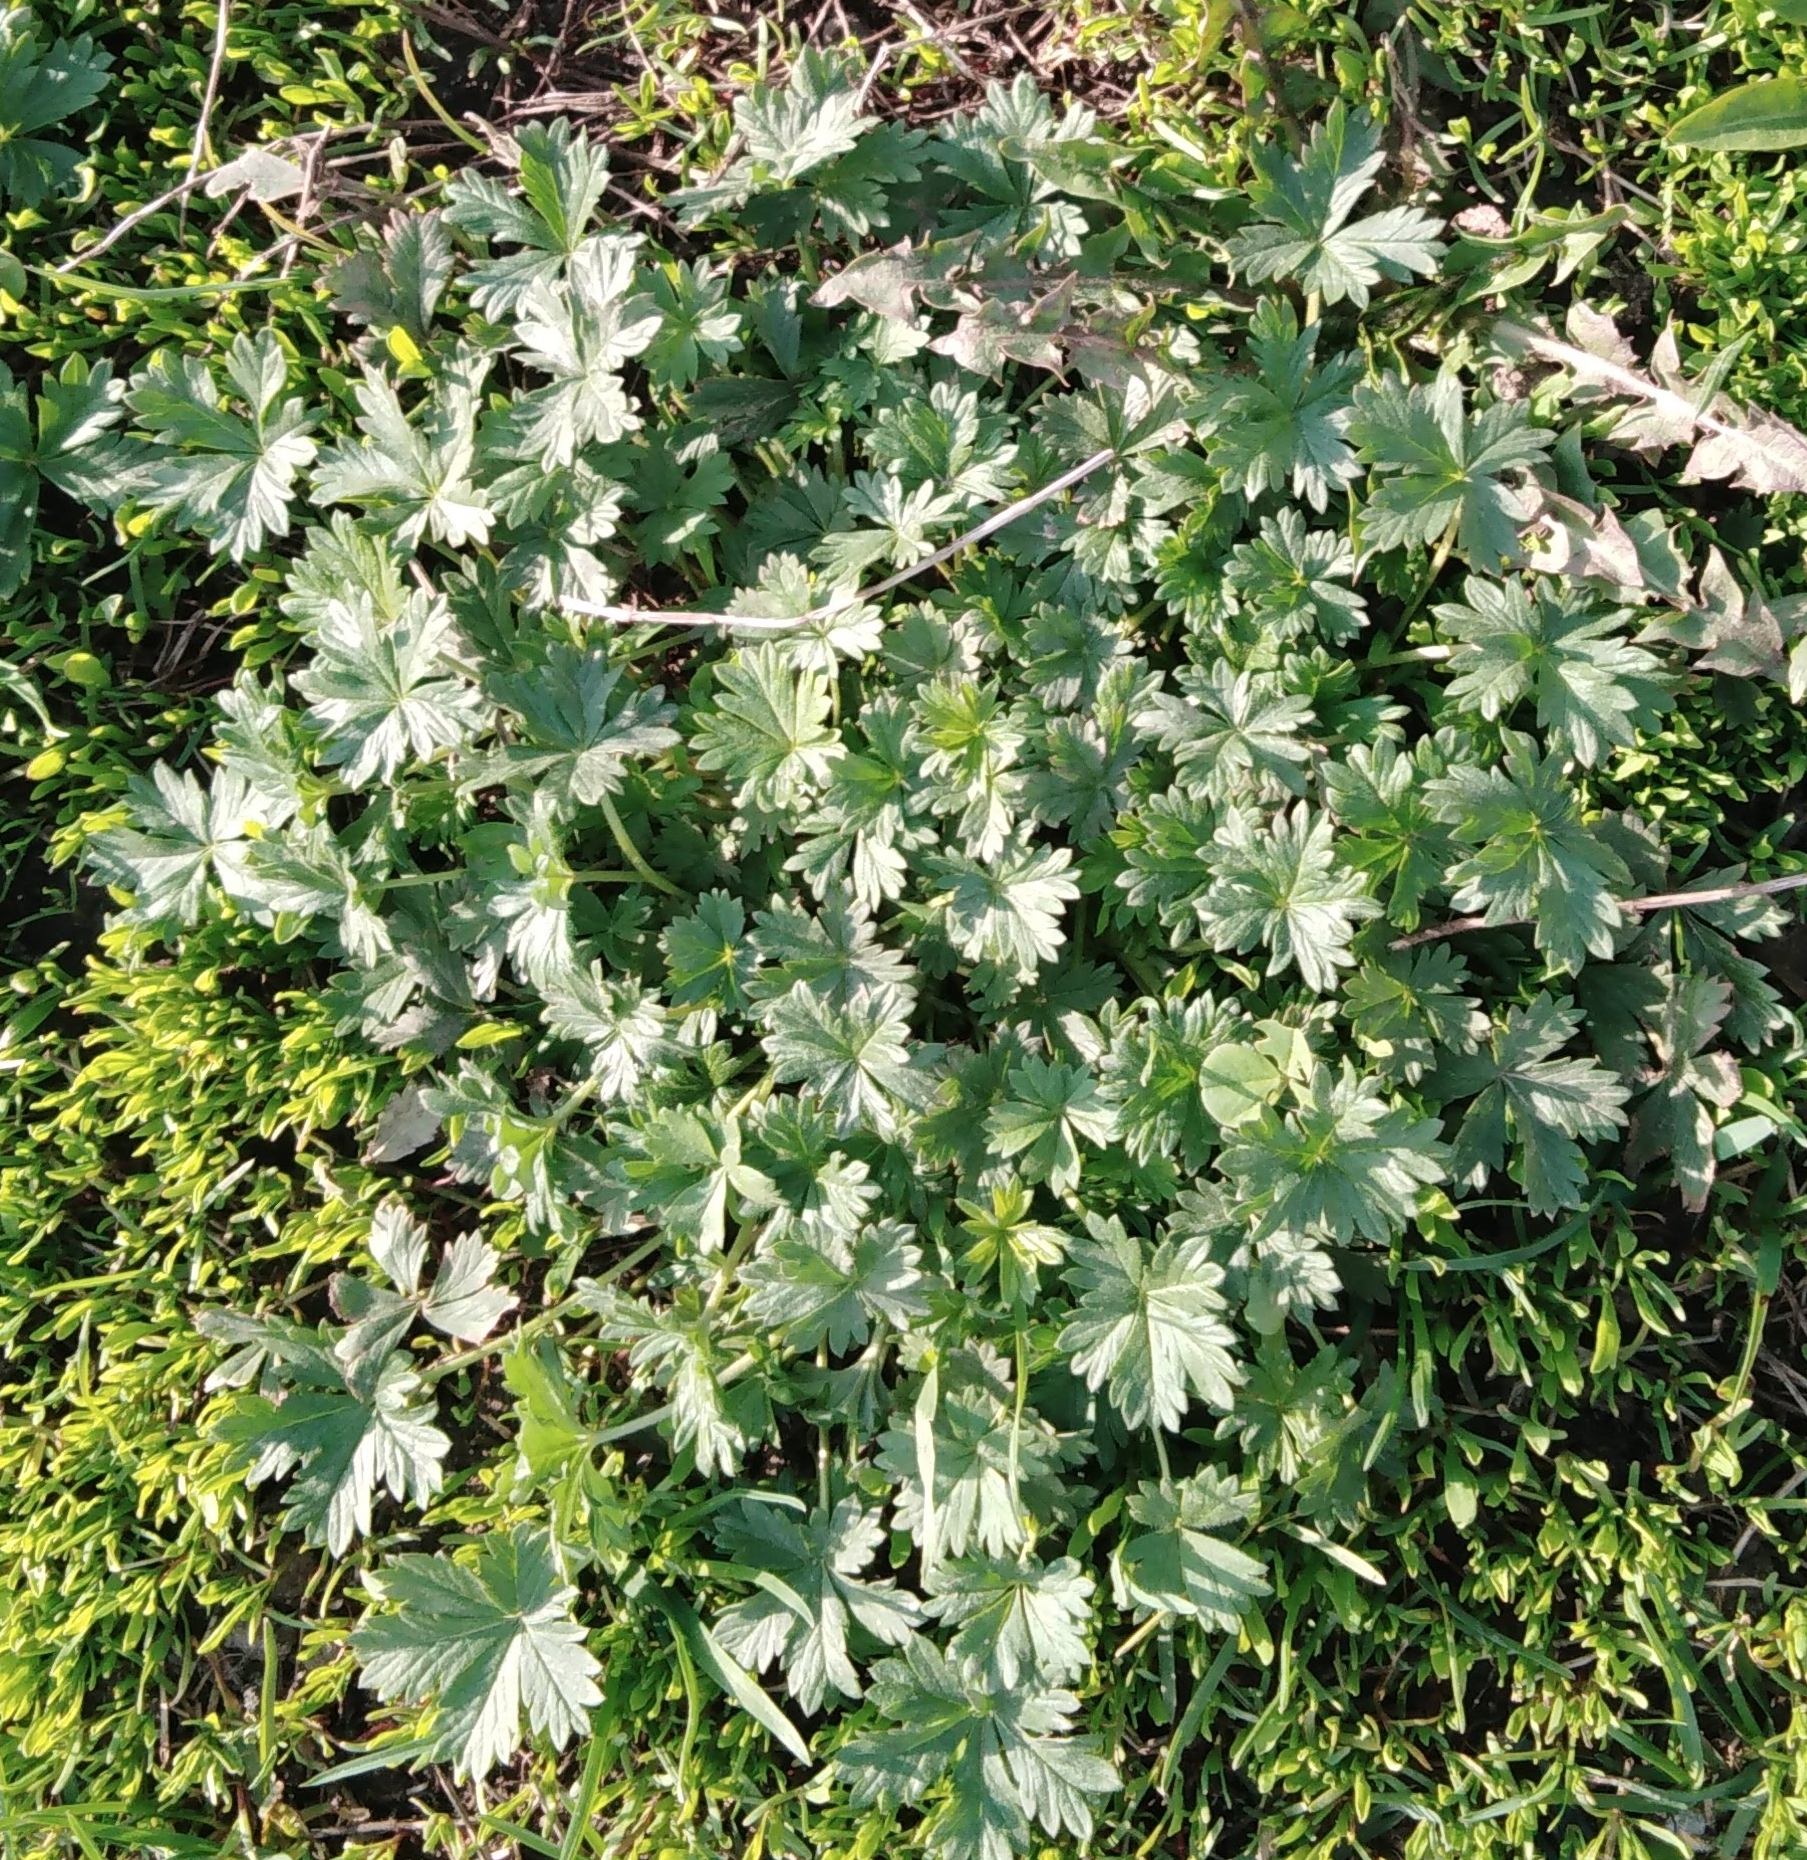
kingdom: Plantae
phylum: Tracheophyta
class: Magnoliopsida
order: Rosales
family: Rosaceae
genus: Potentilla
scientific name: Potentilla argentea
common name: Hoary cinquefoil
